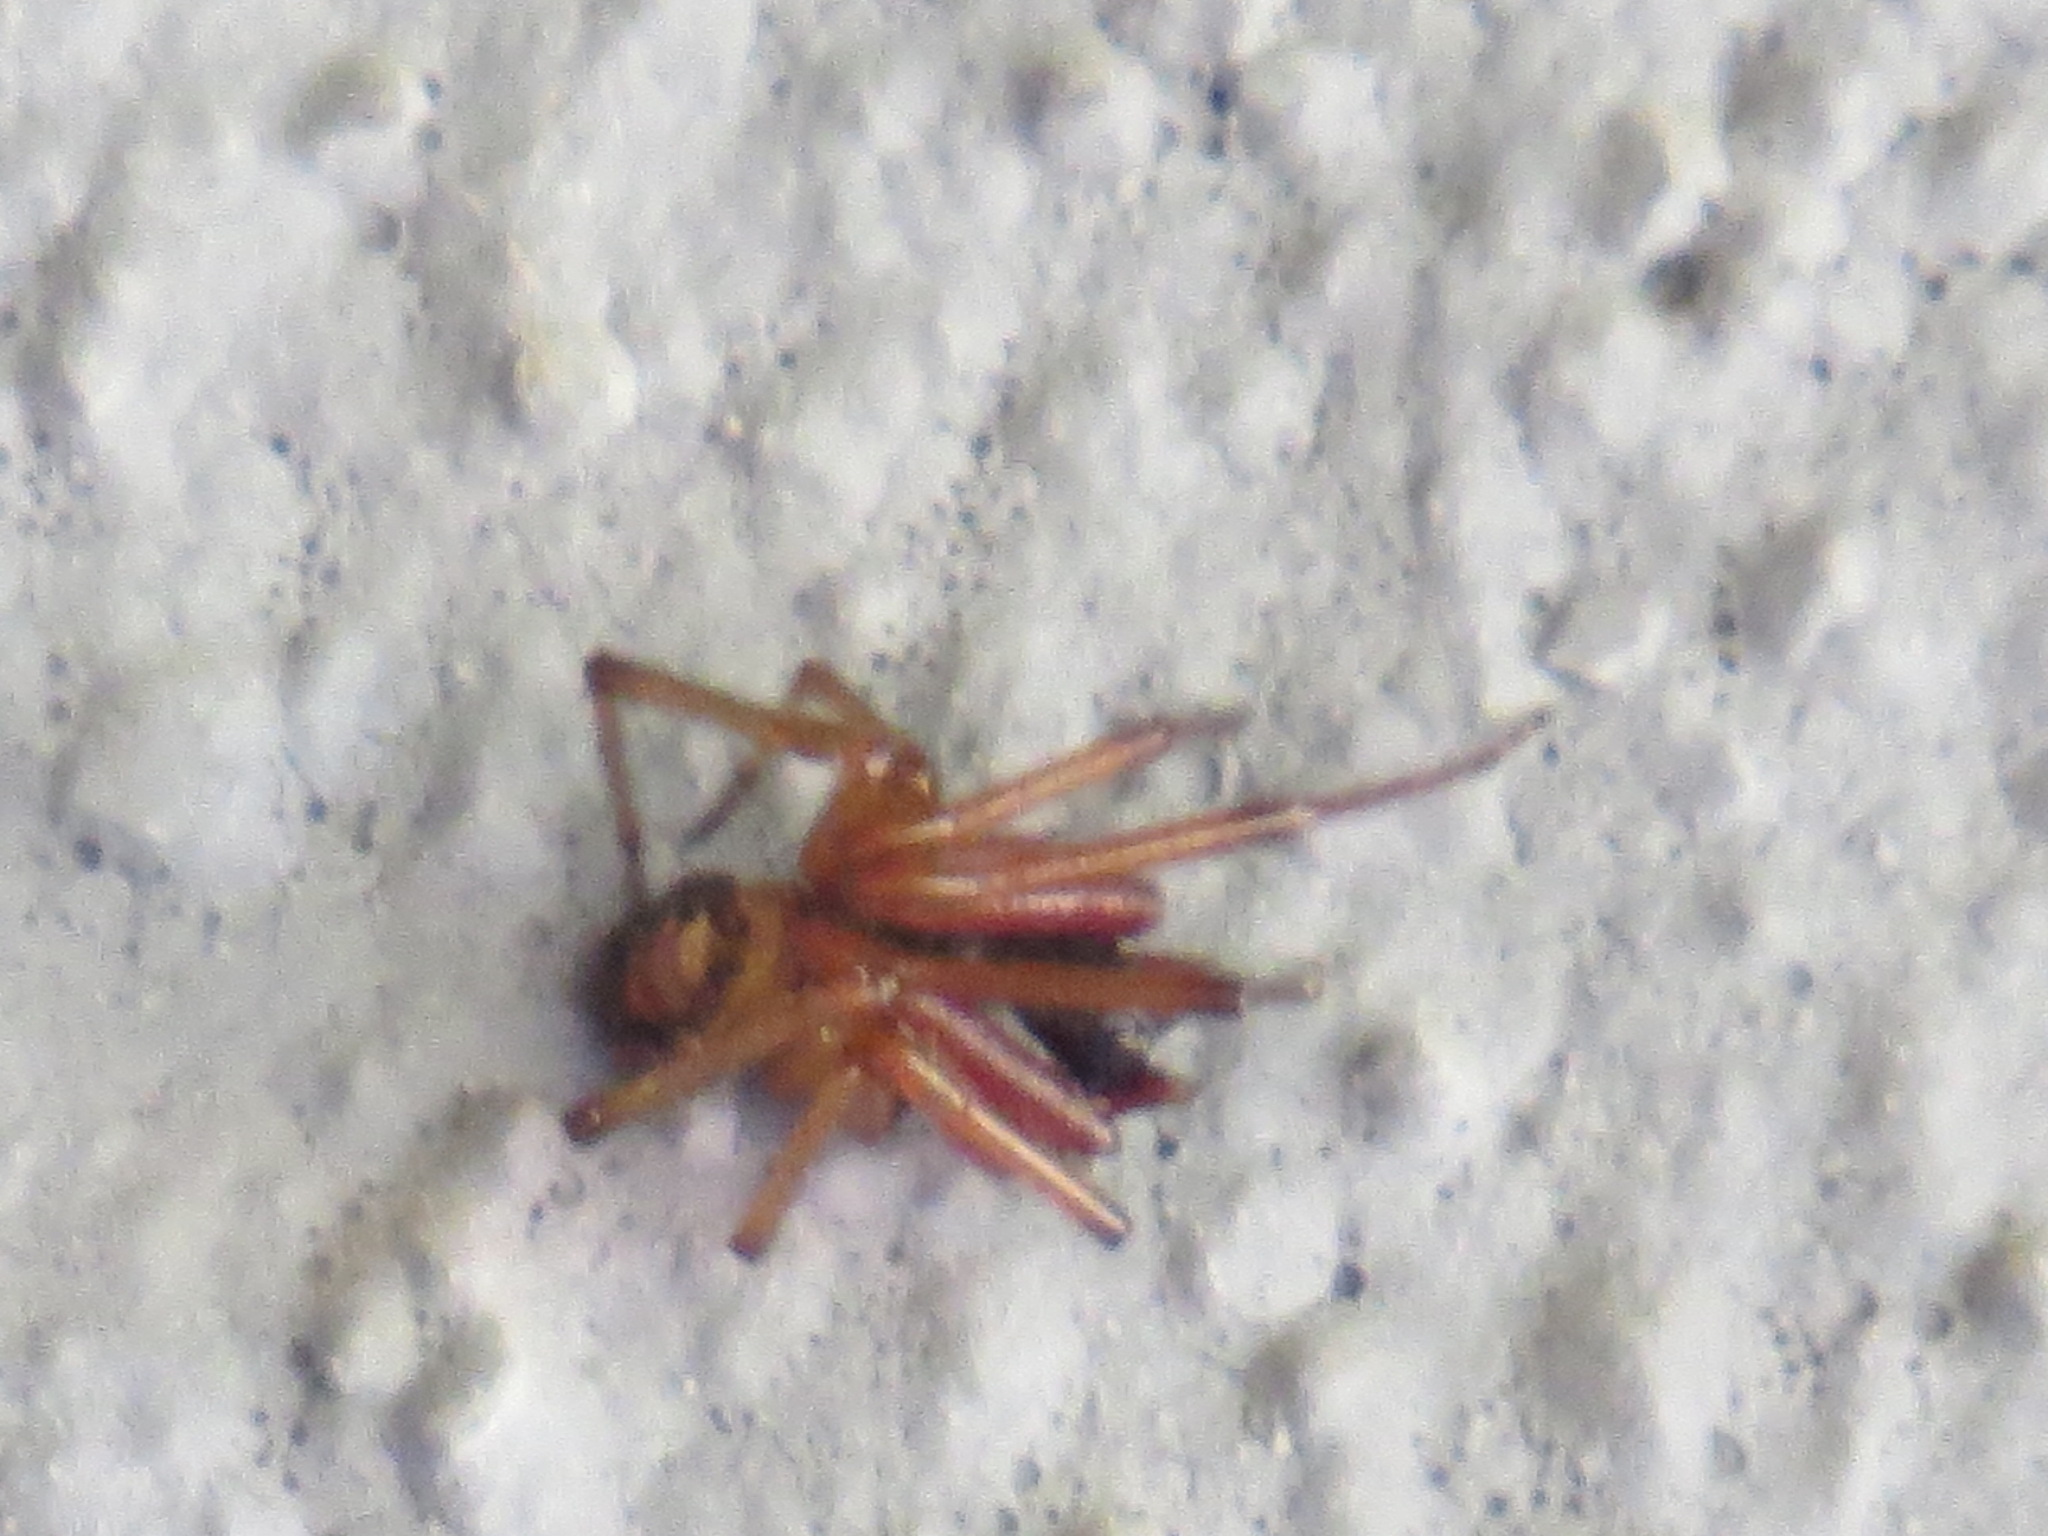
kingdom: Animalia
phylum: Arthropoda
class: Arachnida
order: Araneae
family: Theridiidae
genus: Steatoda
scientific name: Steatoda nobilis
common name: Cobweb weaver
